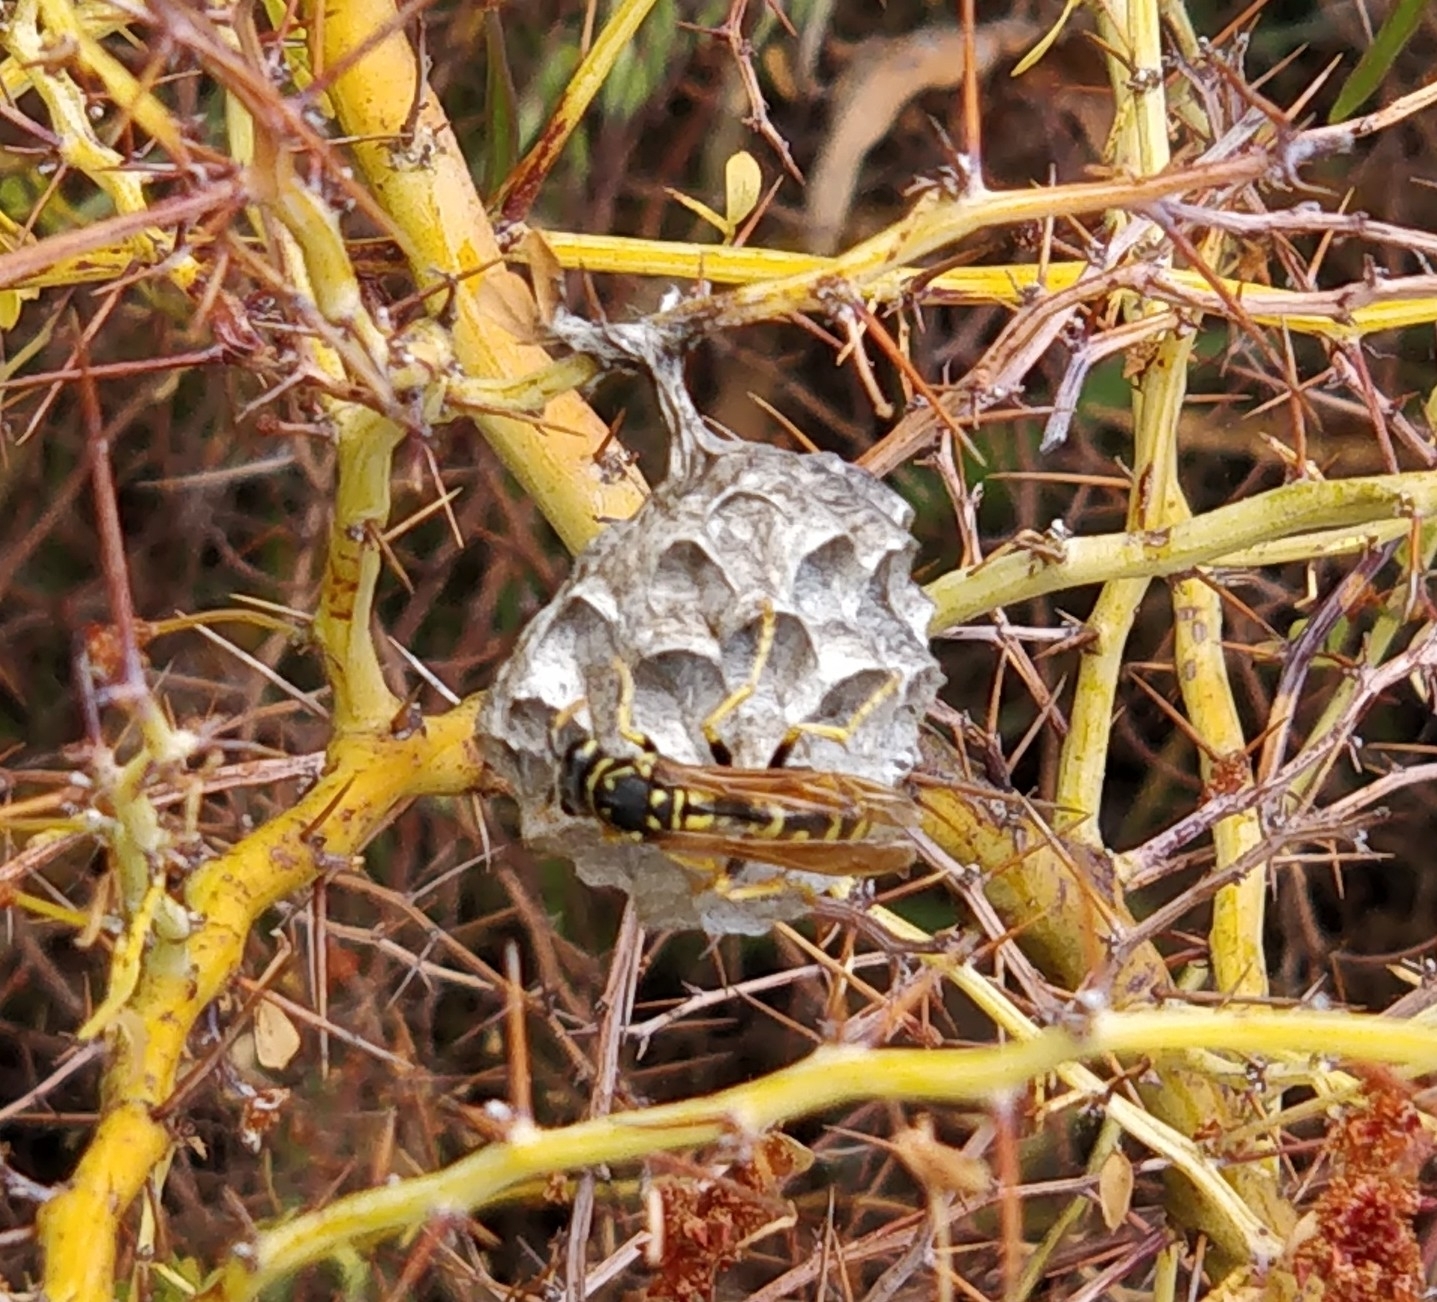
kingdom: Animalia
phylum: Arthropoda
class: Insecta
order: Hymenoptera
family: Eumenidae
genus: Polistes
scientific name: Polistes dominula
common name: Paper wasp
